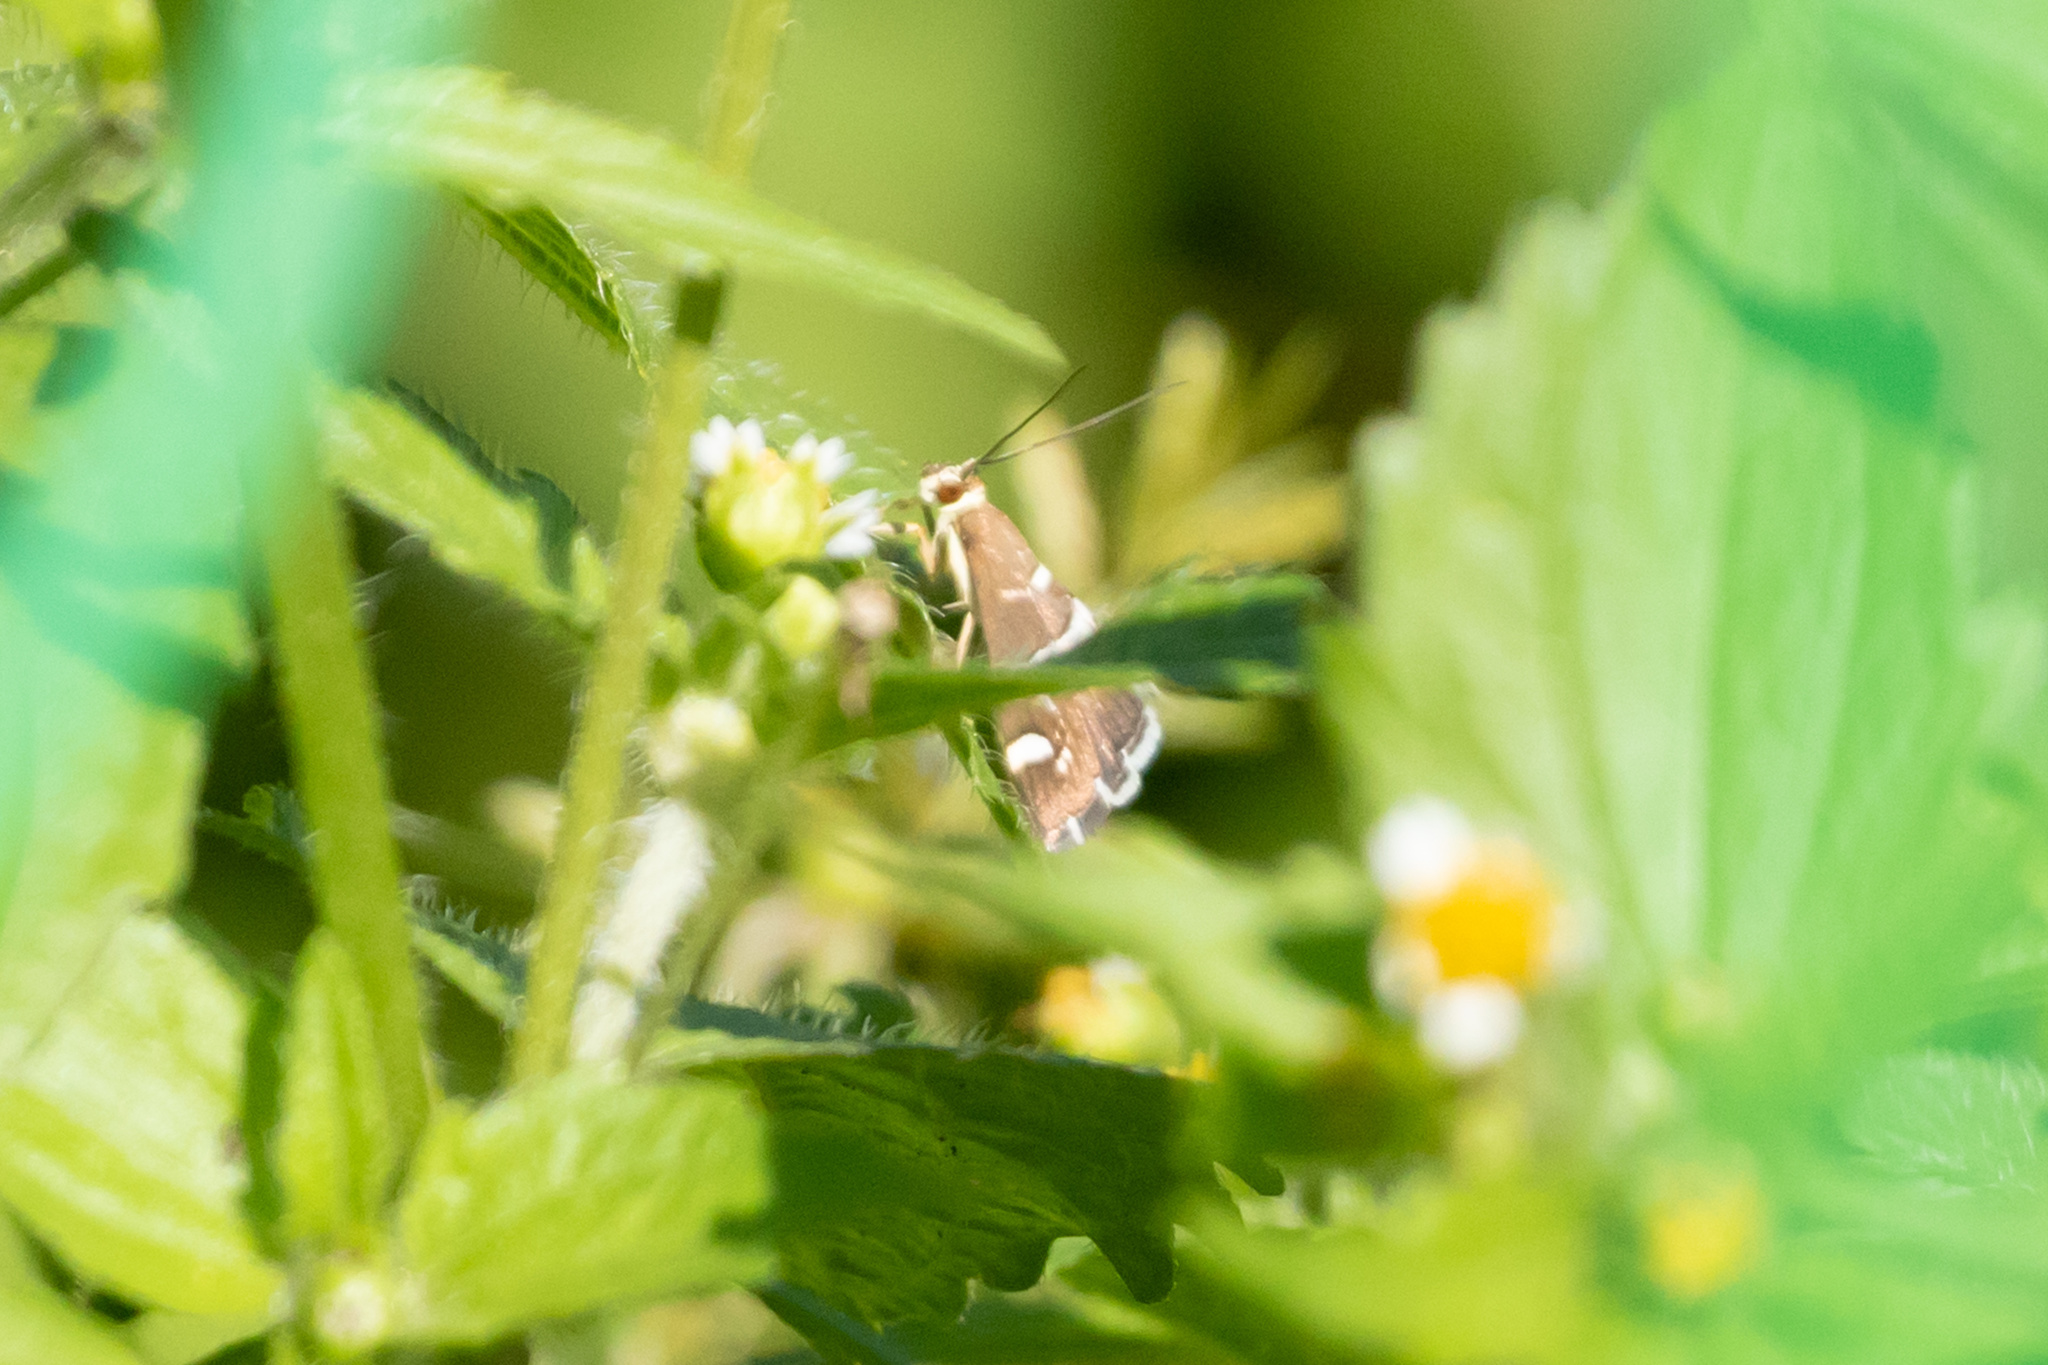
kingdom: Animalia
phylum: Arthropoda
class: Insecta
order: Lepidoptera
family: Crambidae
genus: Spoladea
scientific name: Spoladea recurvalis
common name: Beet webworm moth
